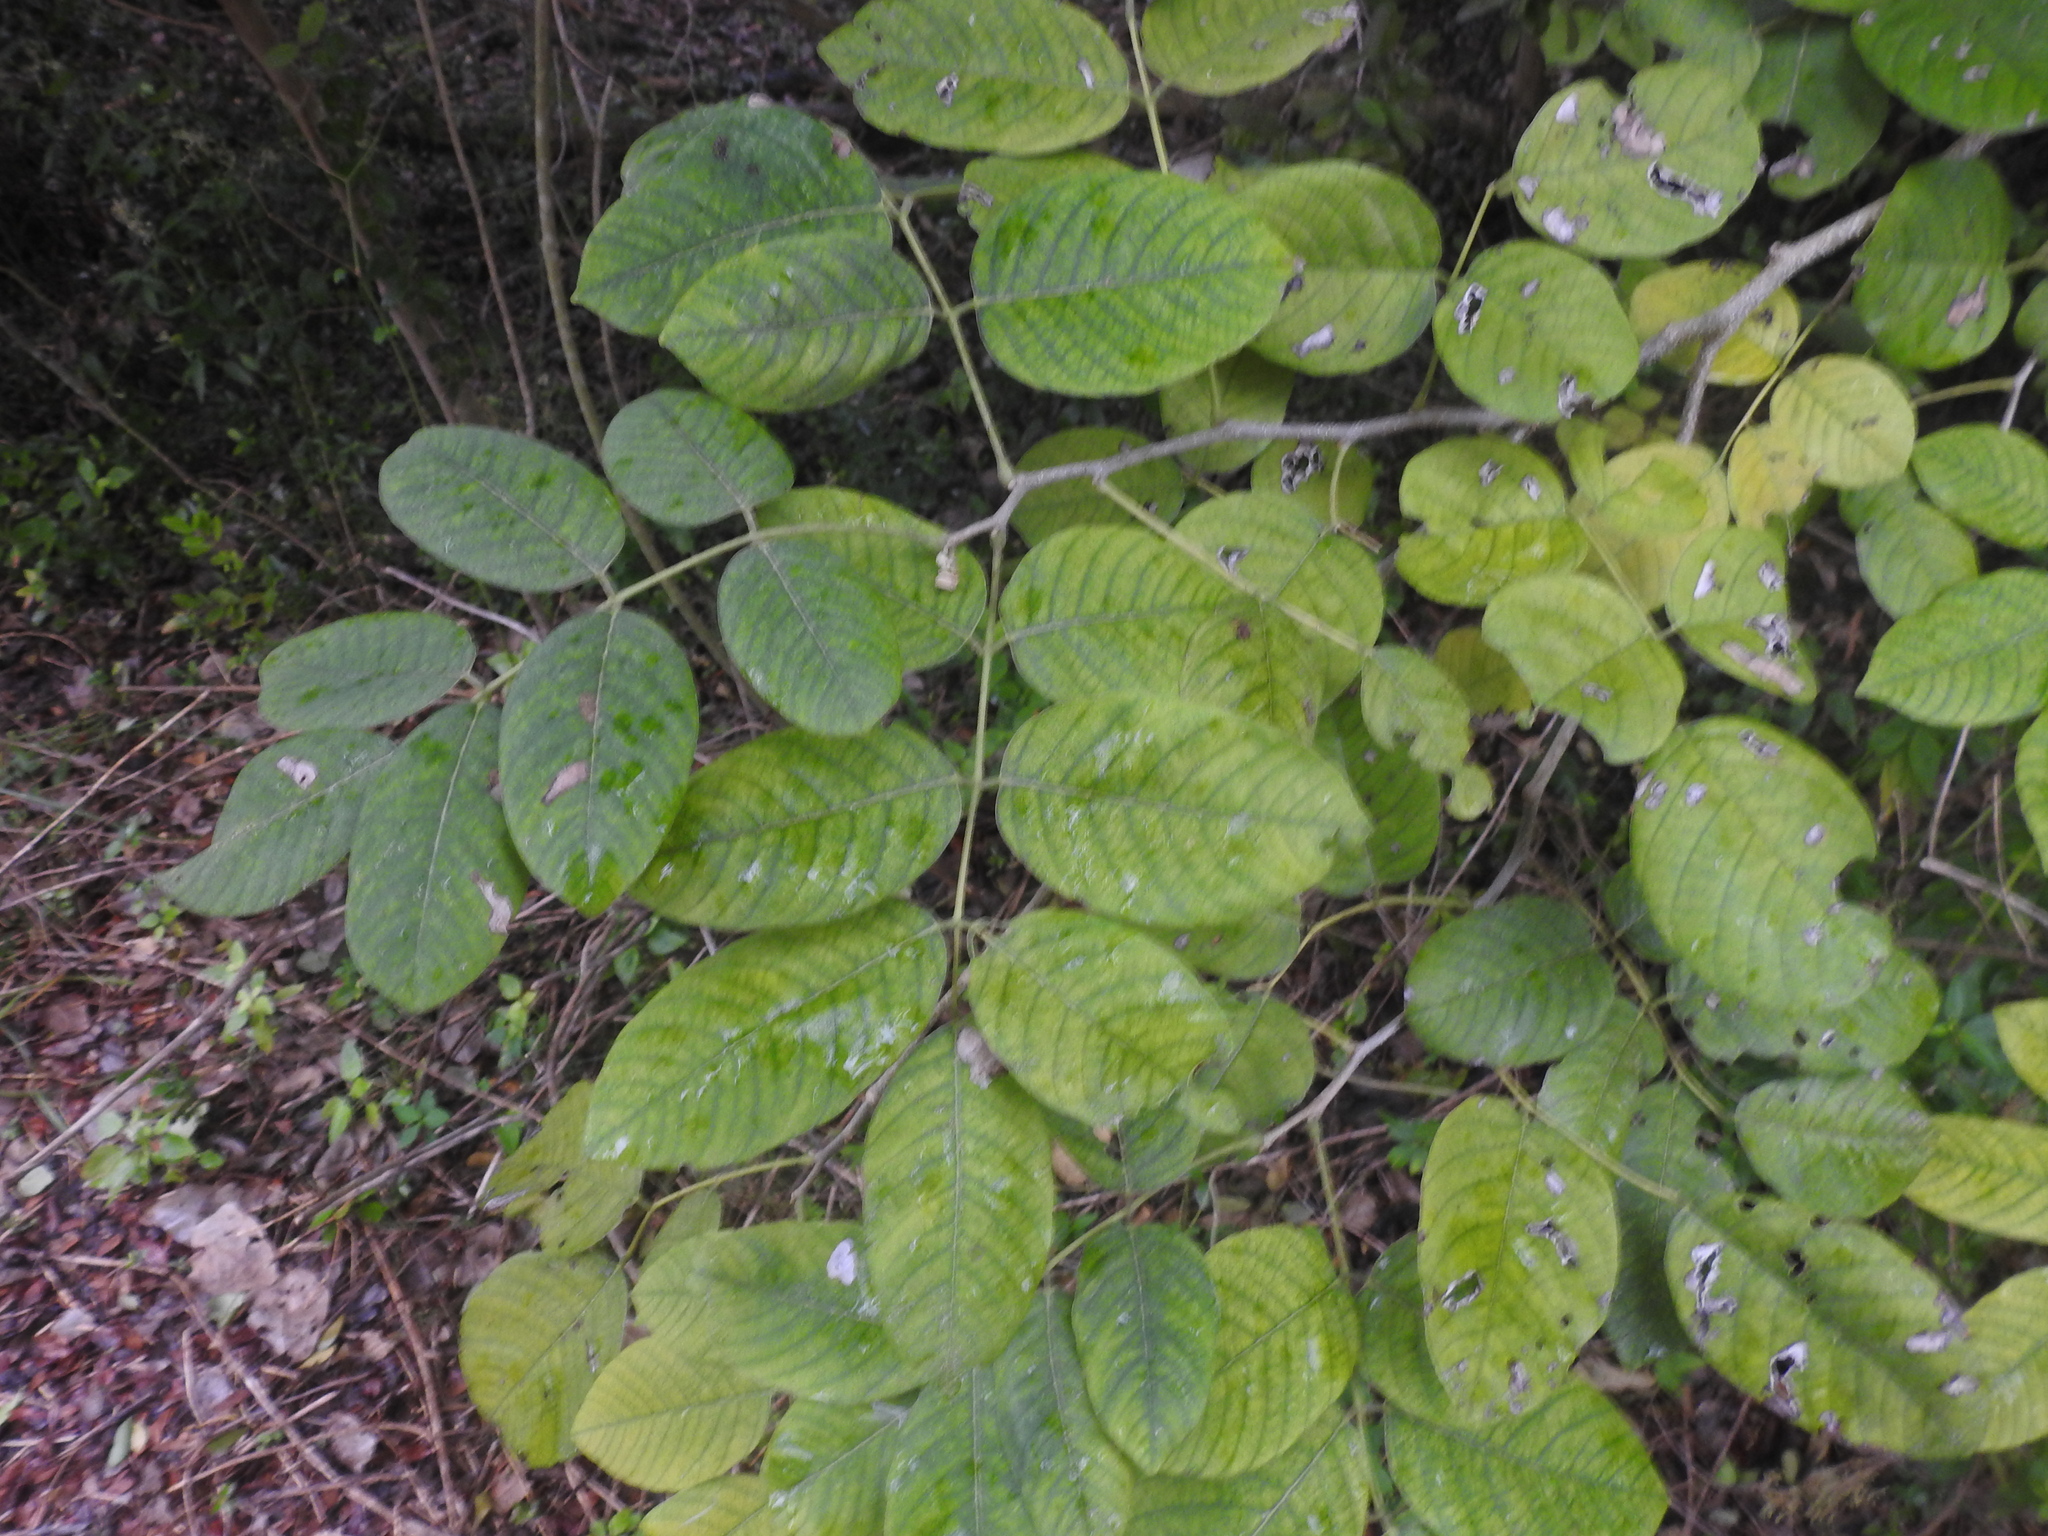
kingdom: Plantae
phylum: Tracheophyta
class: Magnoliopsida
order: Fabales
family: Fabaceae
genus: Piscidia
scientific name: Piscidia piscipula
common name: Florida fishpoison tree
